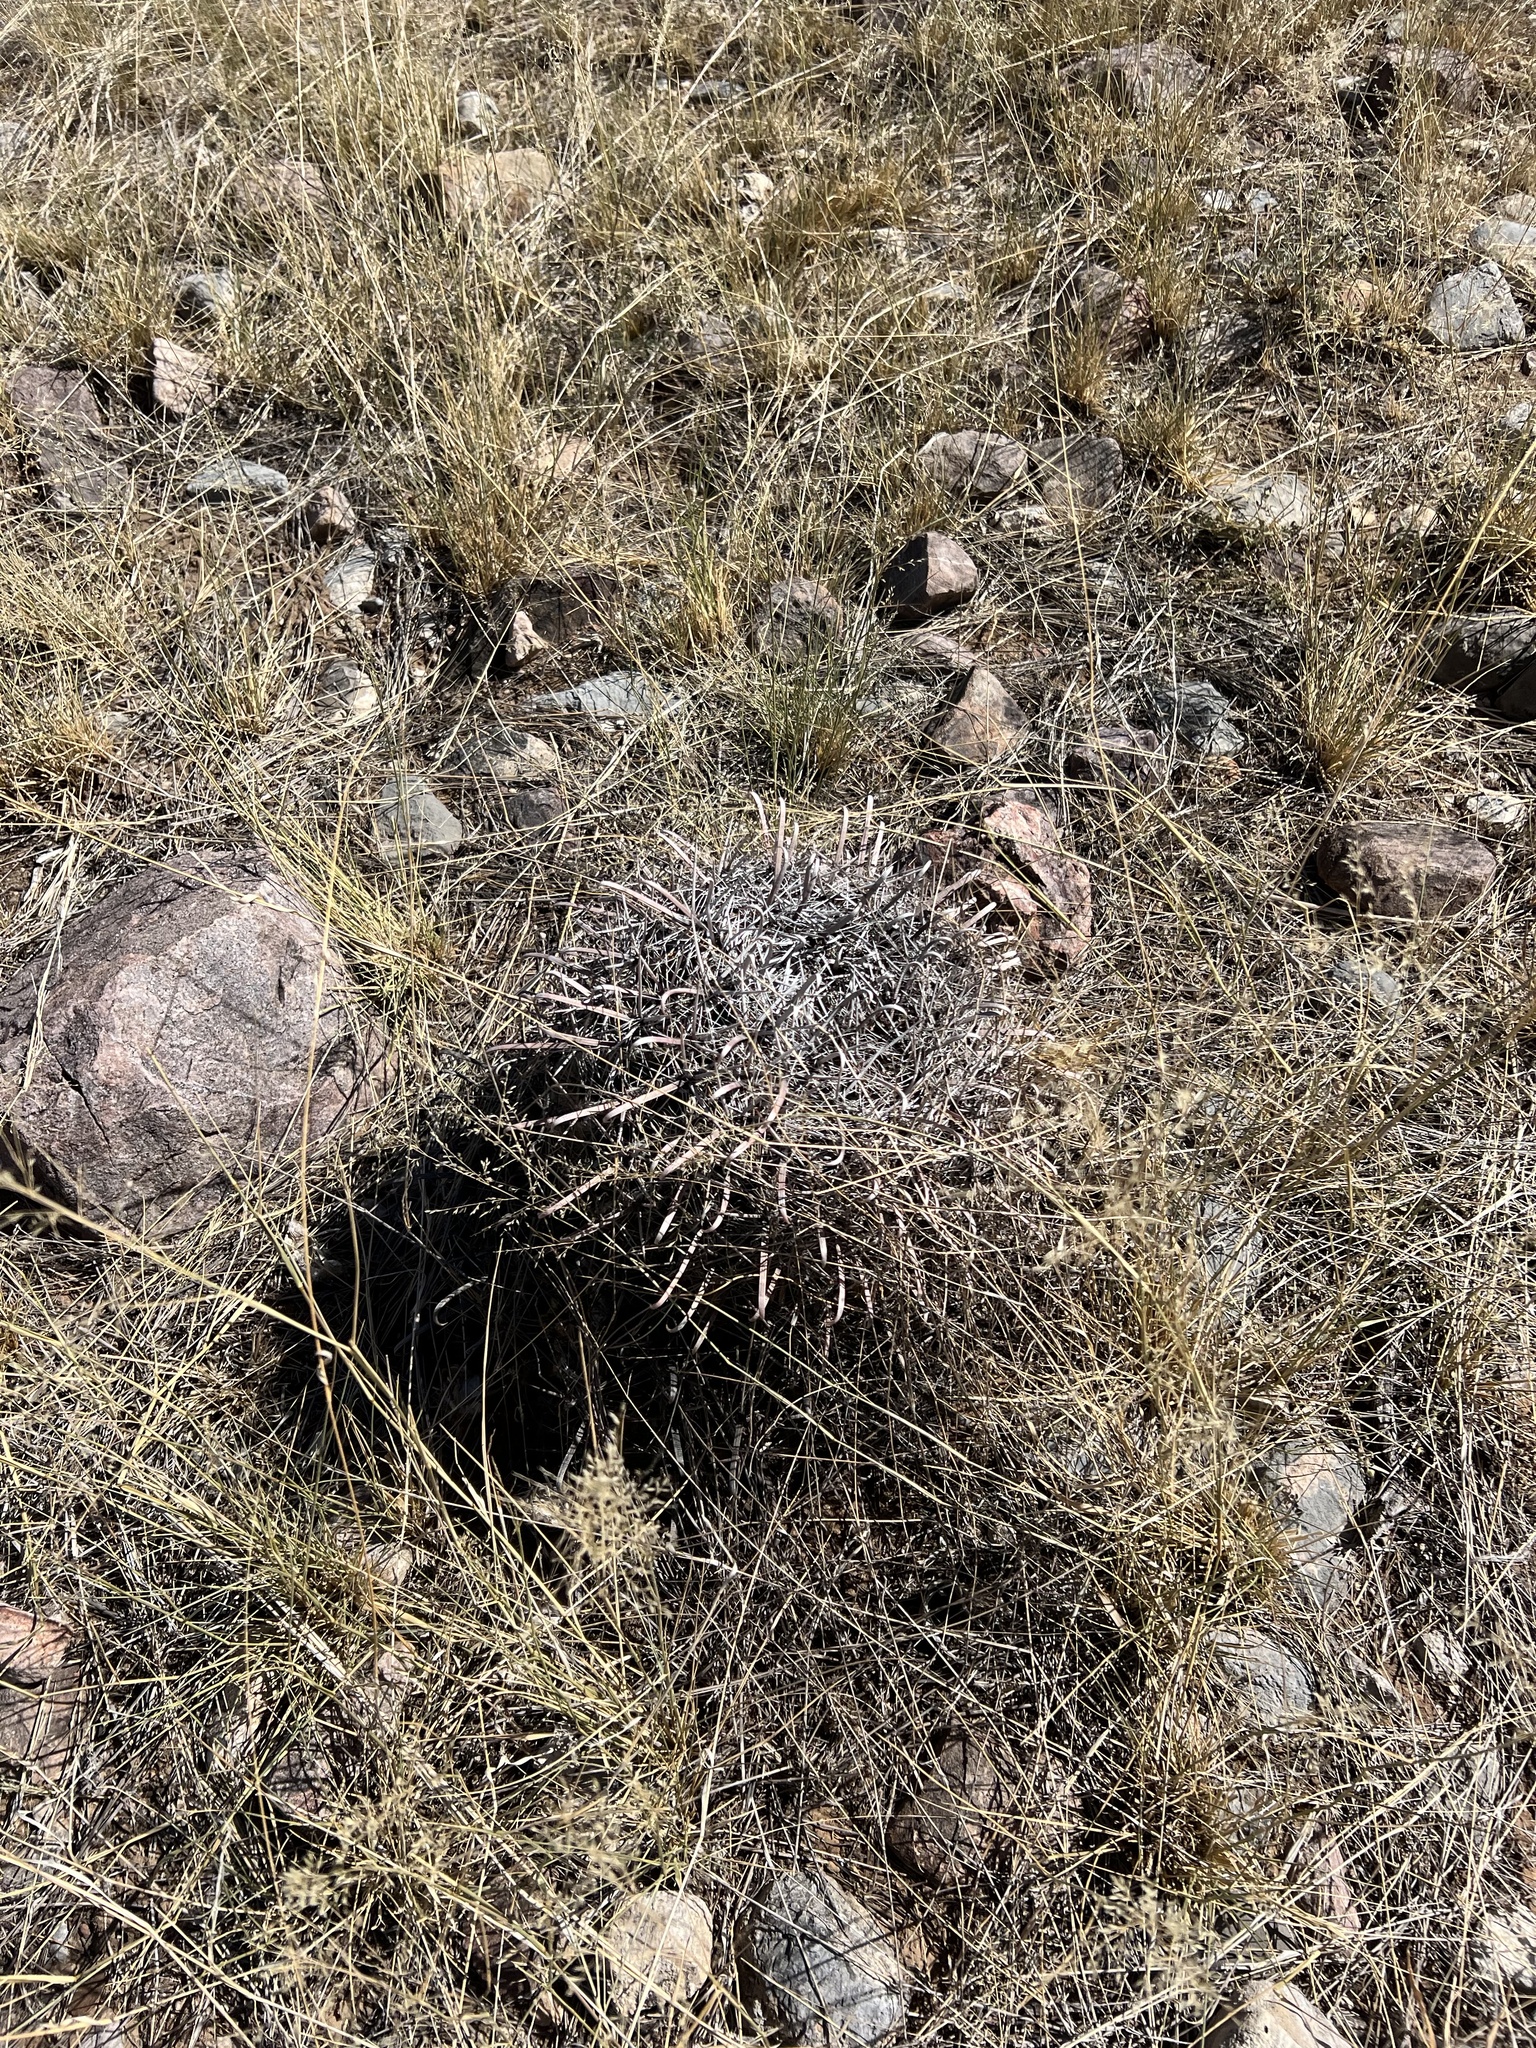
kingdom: Plantae
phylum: Tracheophyta
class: Magnoliopsida
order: Caryophyllales
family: Cactaceae
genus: Ferocactus
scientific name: Ferocactus wislizeni
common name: Candy barrel cactus
